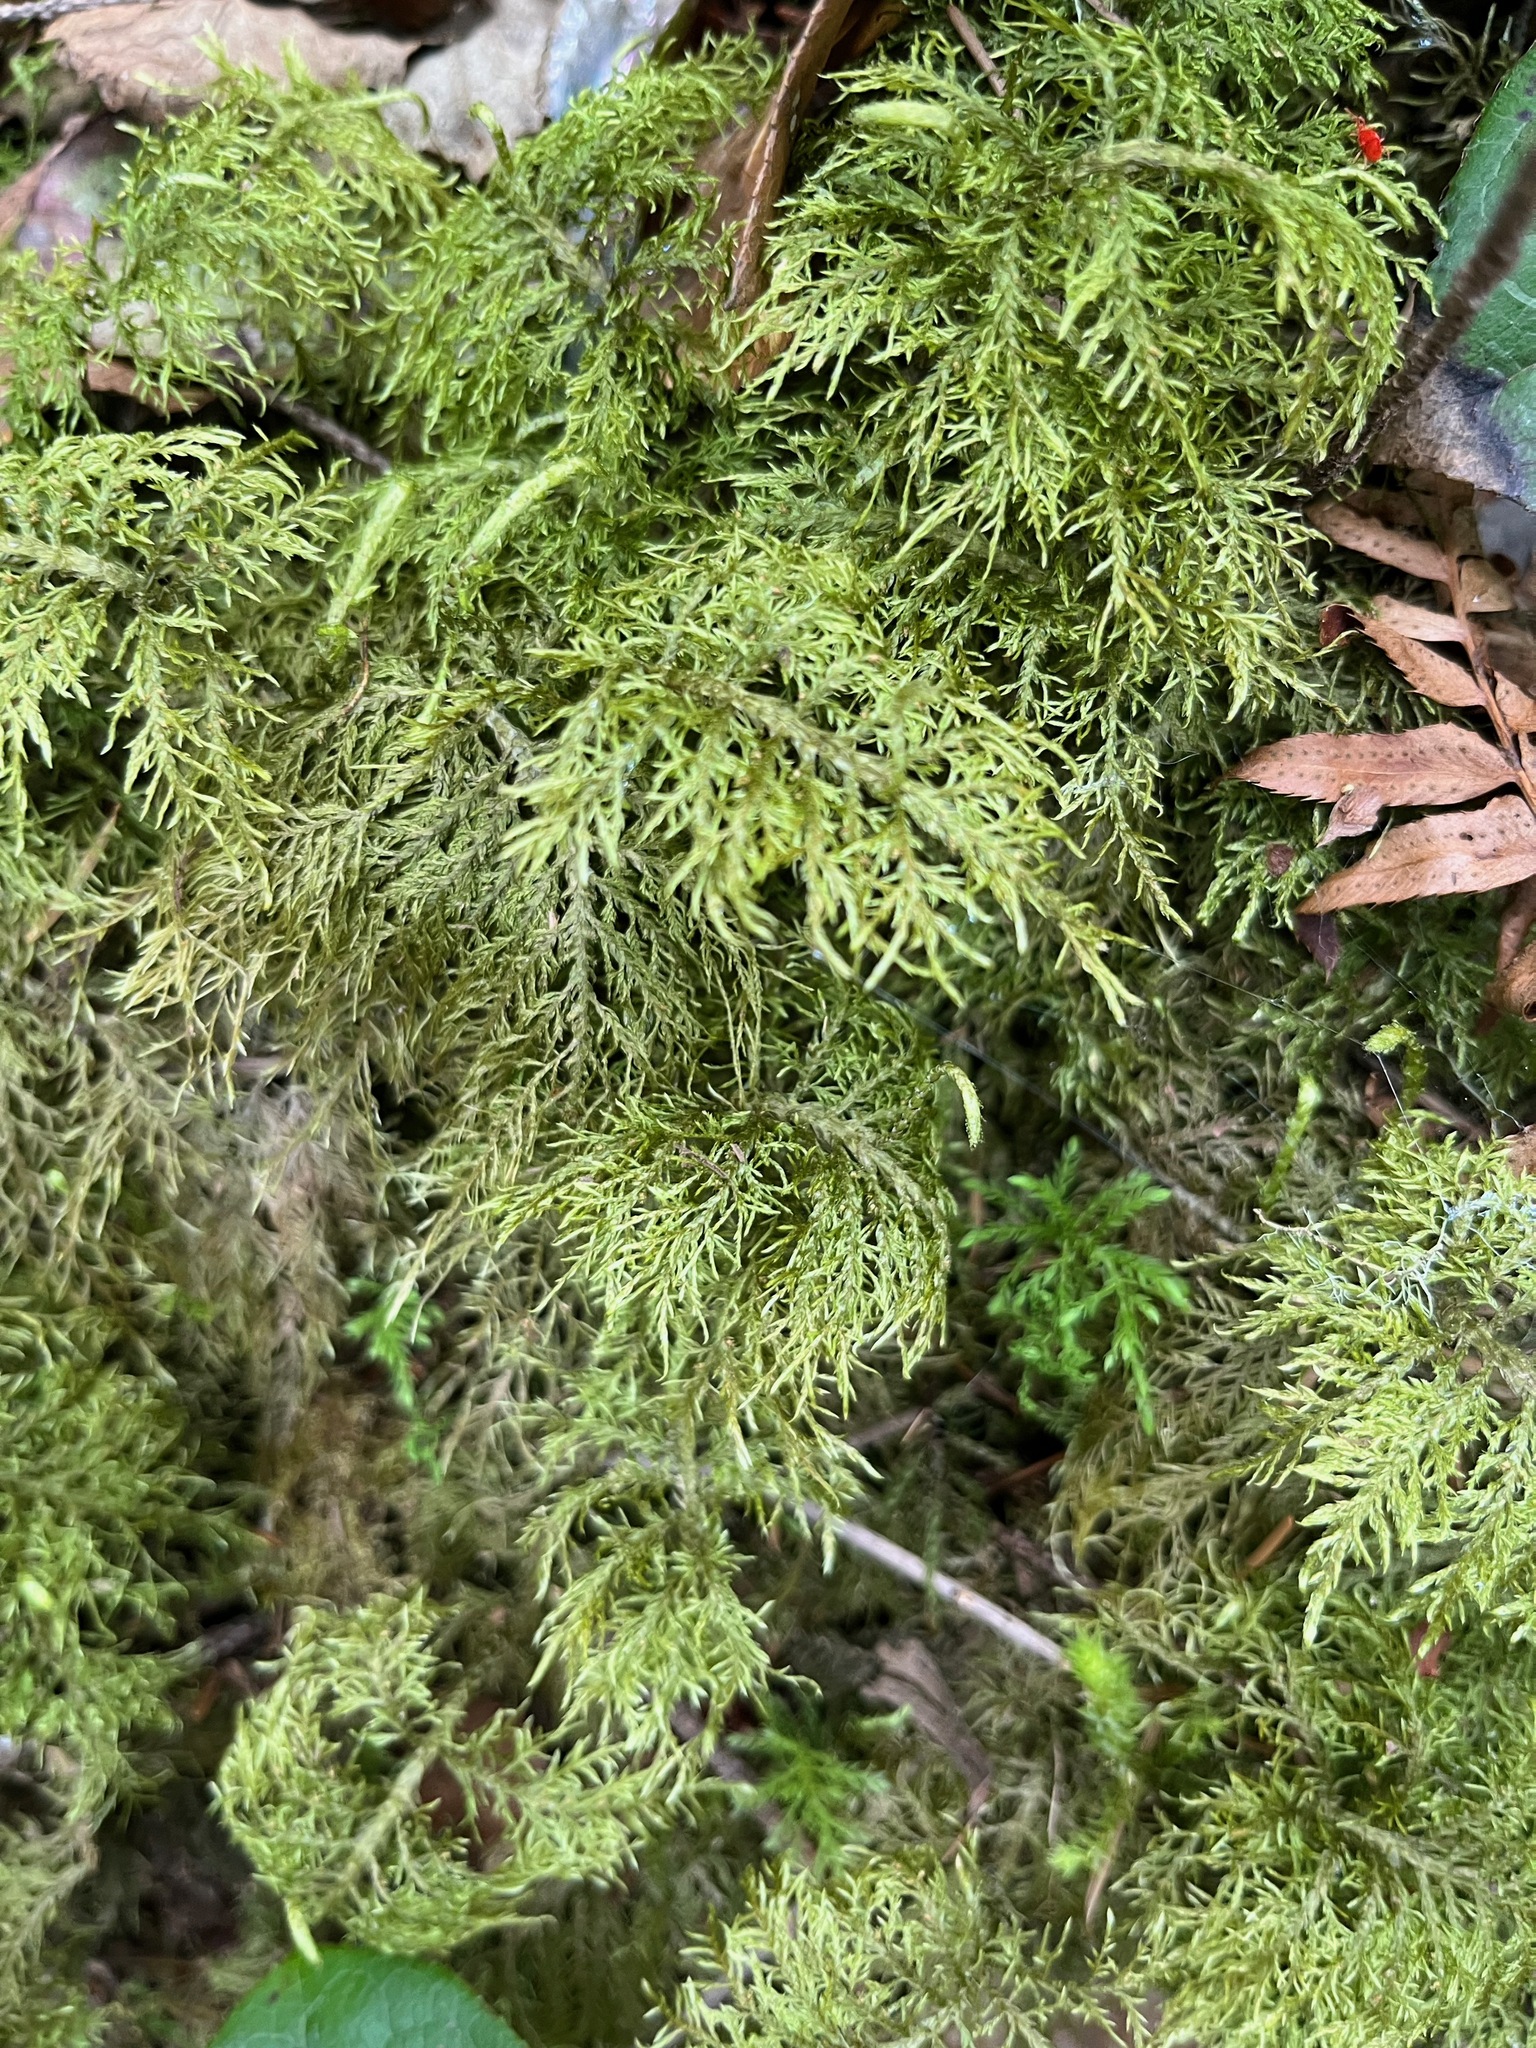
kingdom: Plantae
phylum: Bryophyta
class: Bryopsida
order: Hypnales
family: Hylocomiaceae
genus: Hylocomium
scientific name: Hylocomium splendens
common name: Stairstep moss
